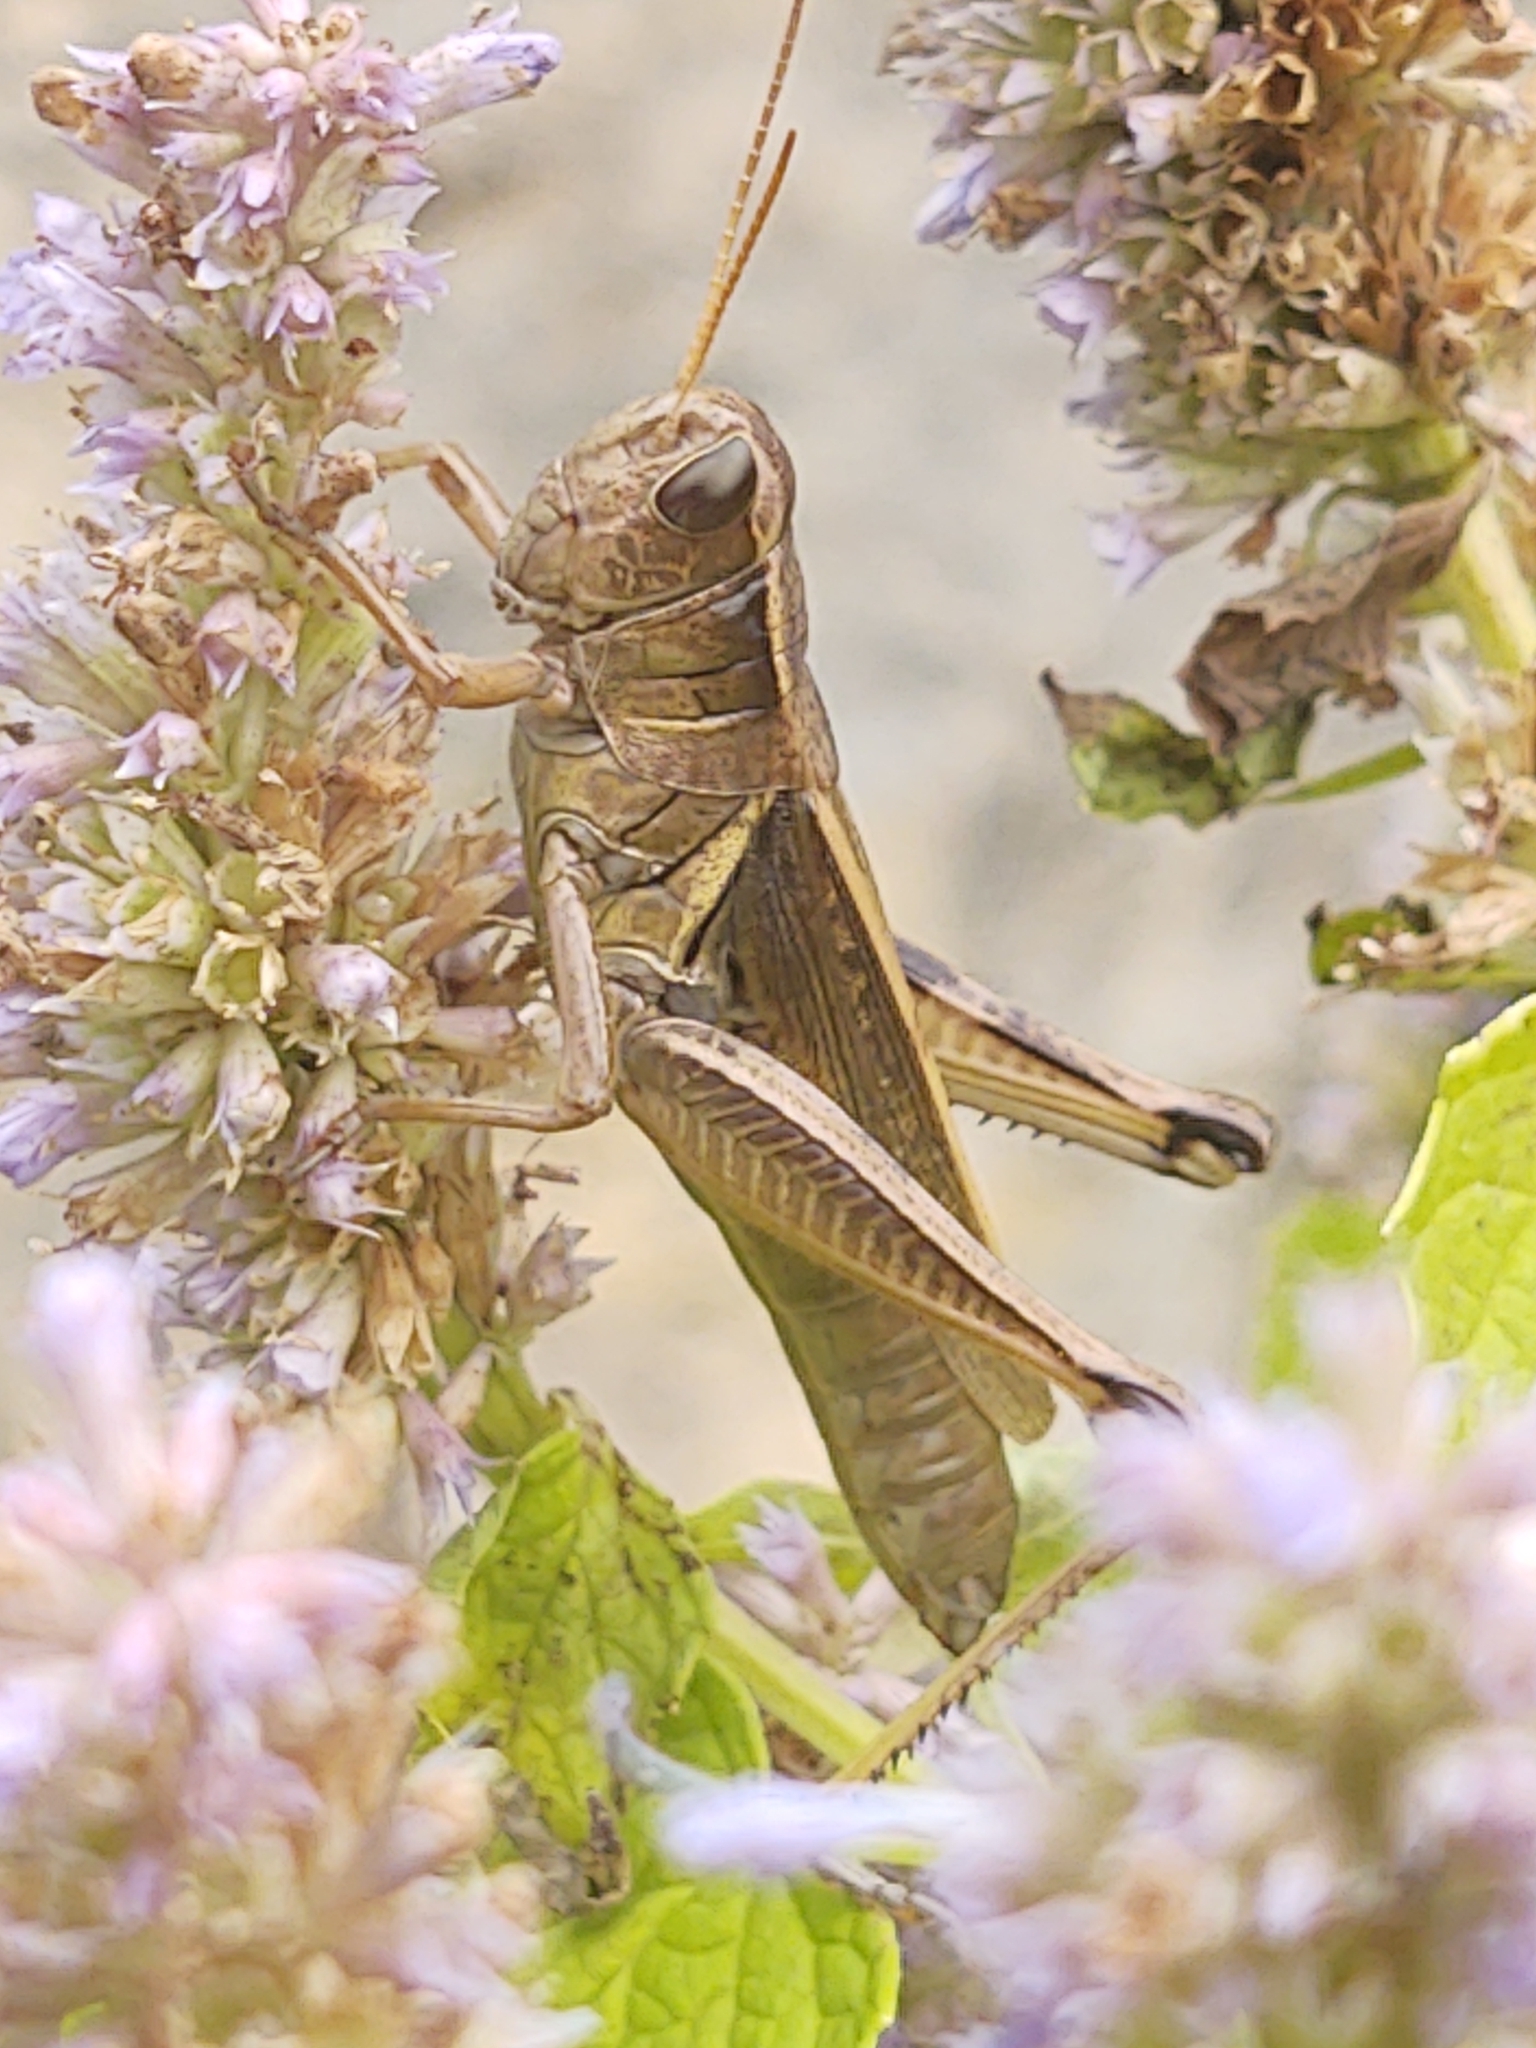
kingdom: Animalia
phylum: Arthropoda
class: Insecta
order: Orthoptera
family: Acrididae
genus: Melanoplus
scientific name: Melanoplus bivittatus
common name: Two-striped grasshopper
